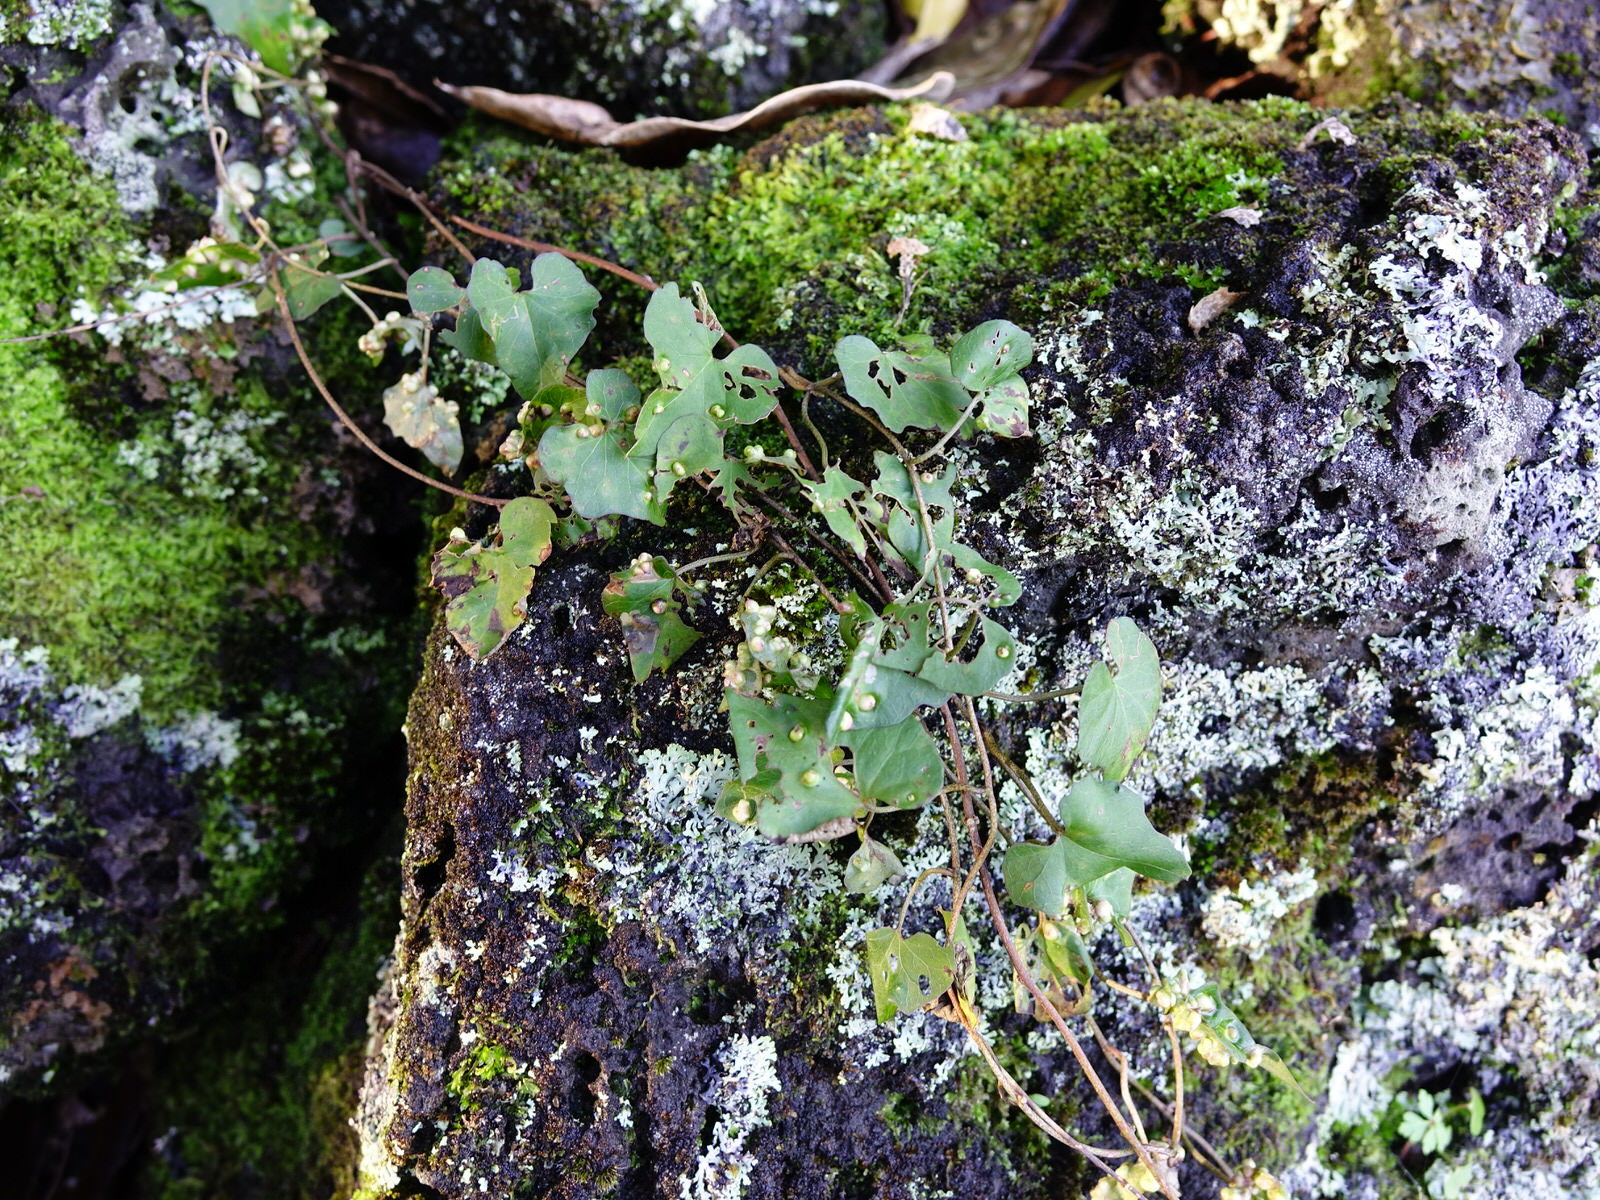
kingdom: Plantae
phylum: Tracheophyta
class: Magnoliopsida
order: Solanales
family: Convolvulaceae
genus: Calystegia
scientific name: Calystegia tuguriorum
